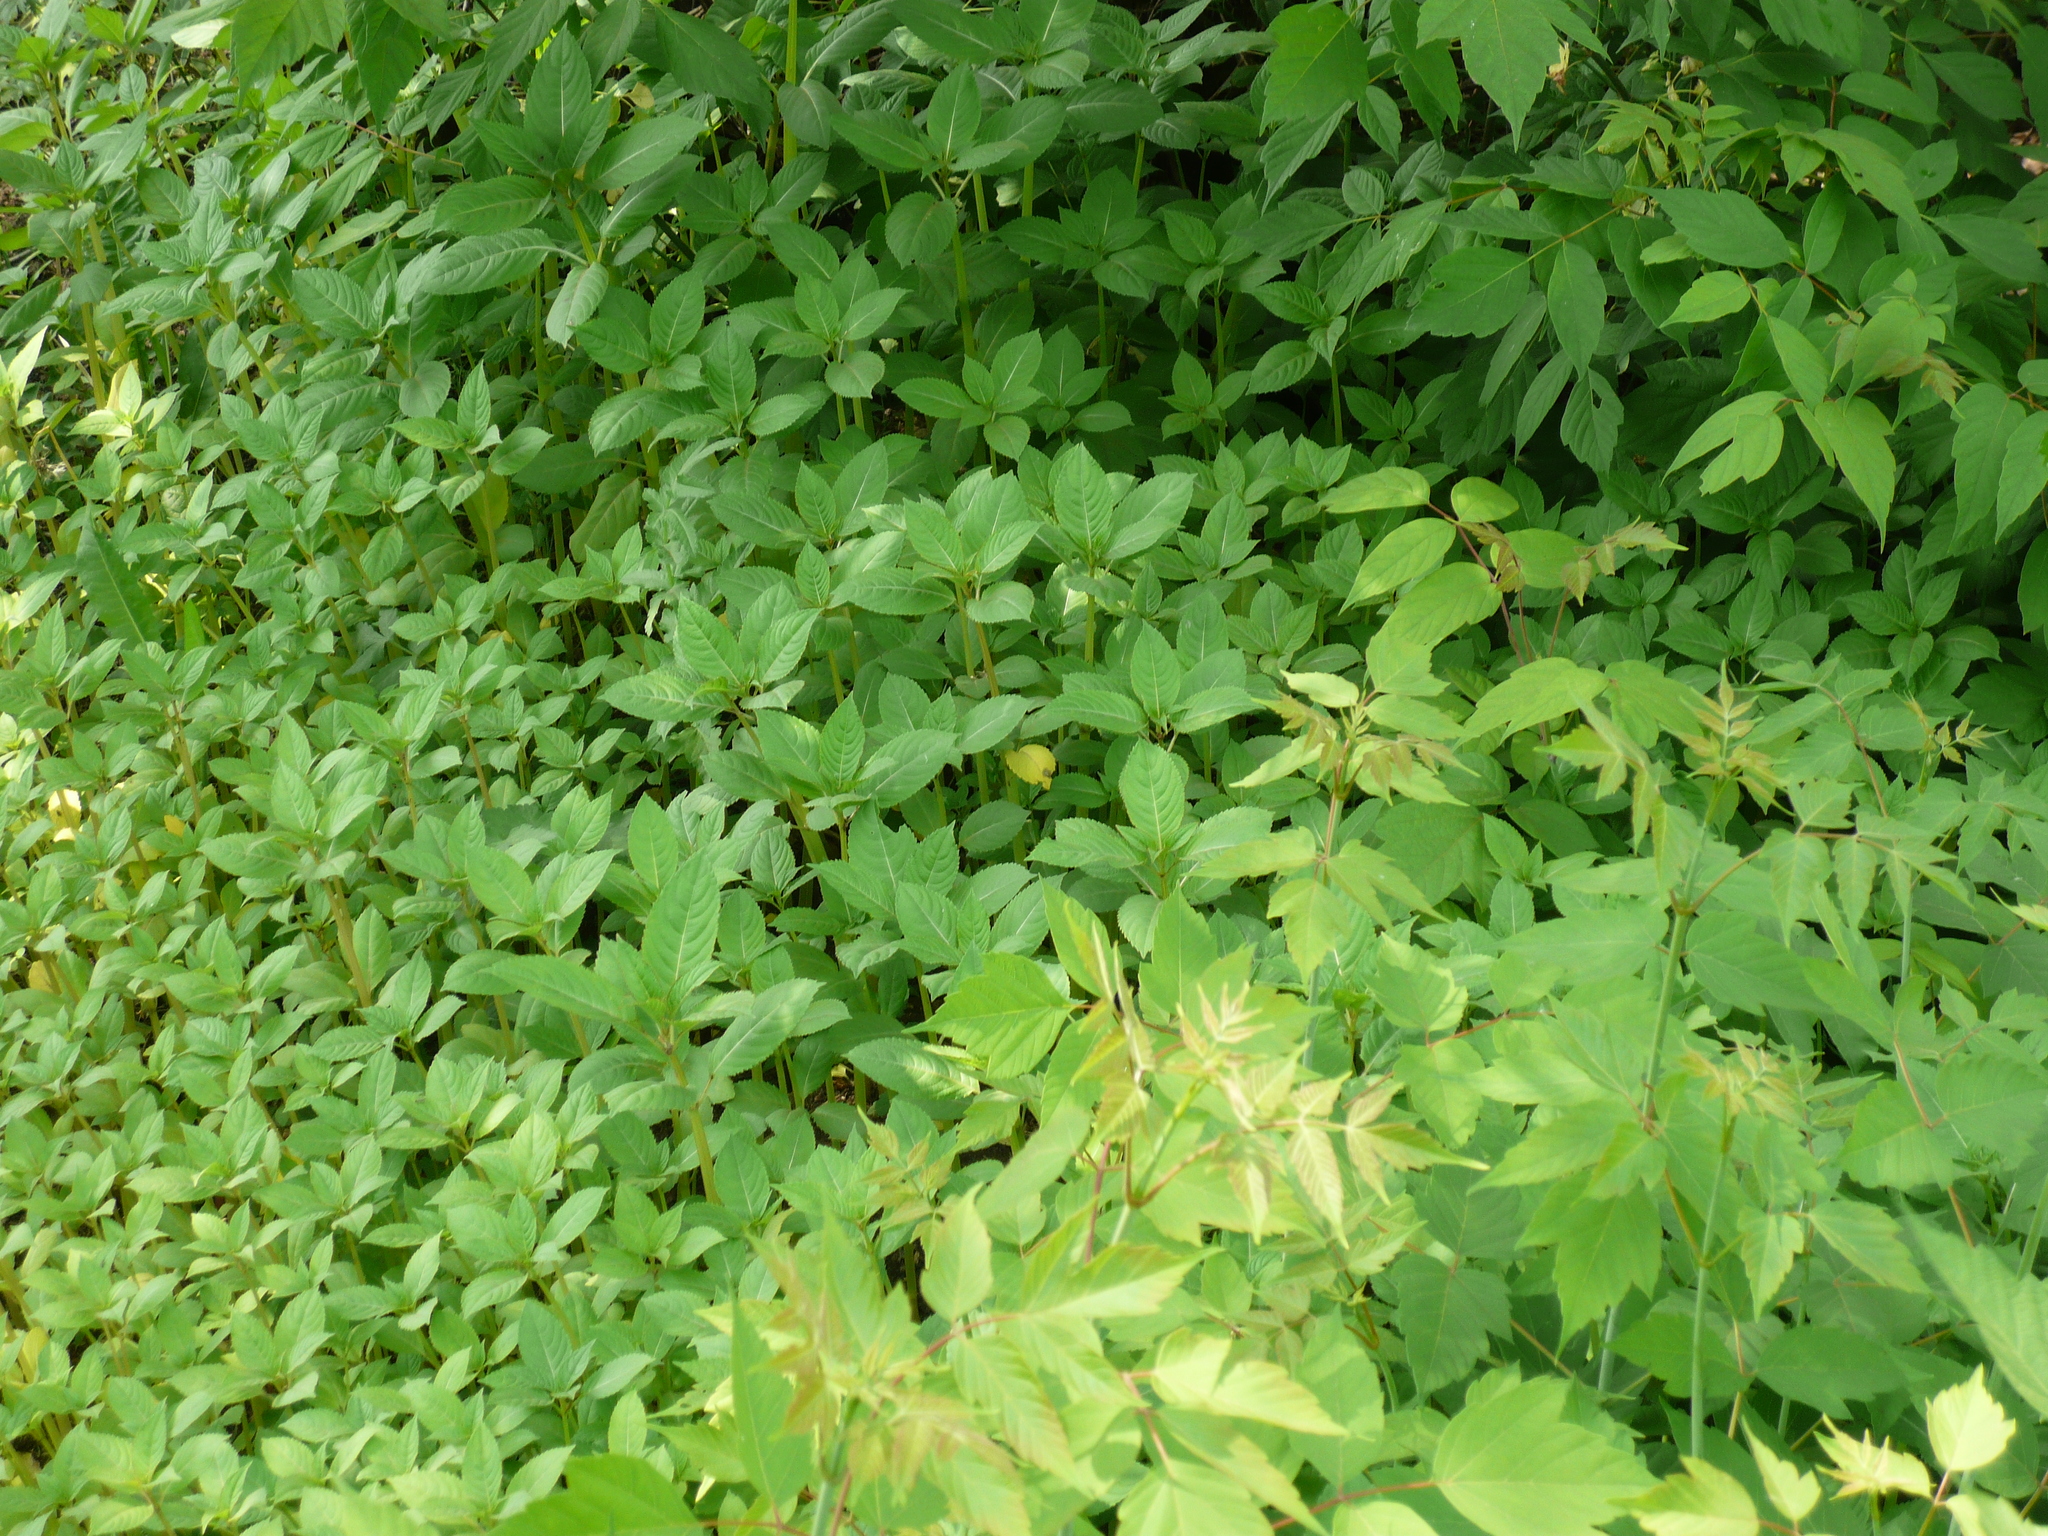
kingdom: Plantae
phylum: Tracheophyta
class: Magnoliopsida
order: Ericales
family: Balsaminaceae
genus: Impatiens
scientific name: Impatiens glandulifera
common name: Himalayan balsam
